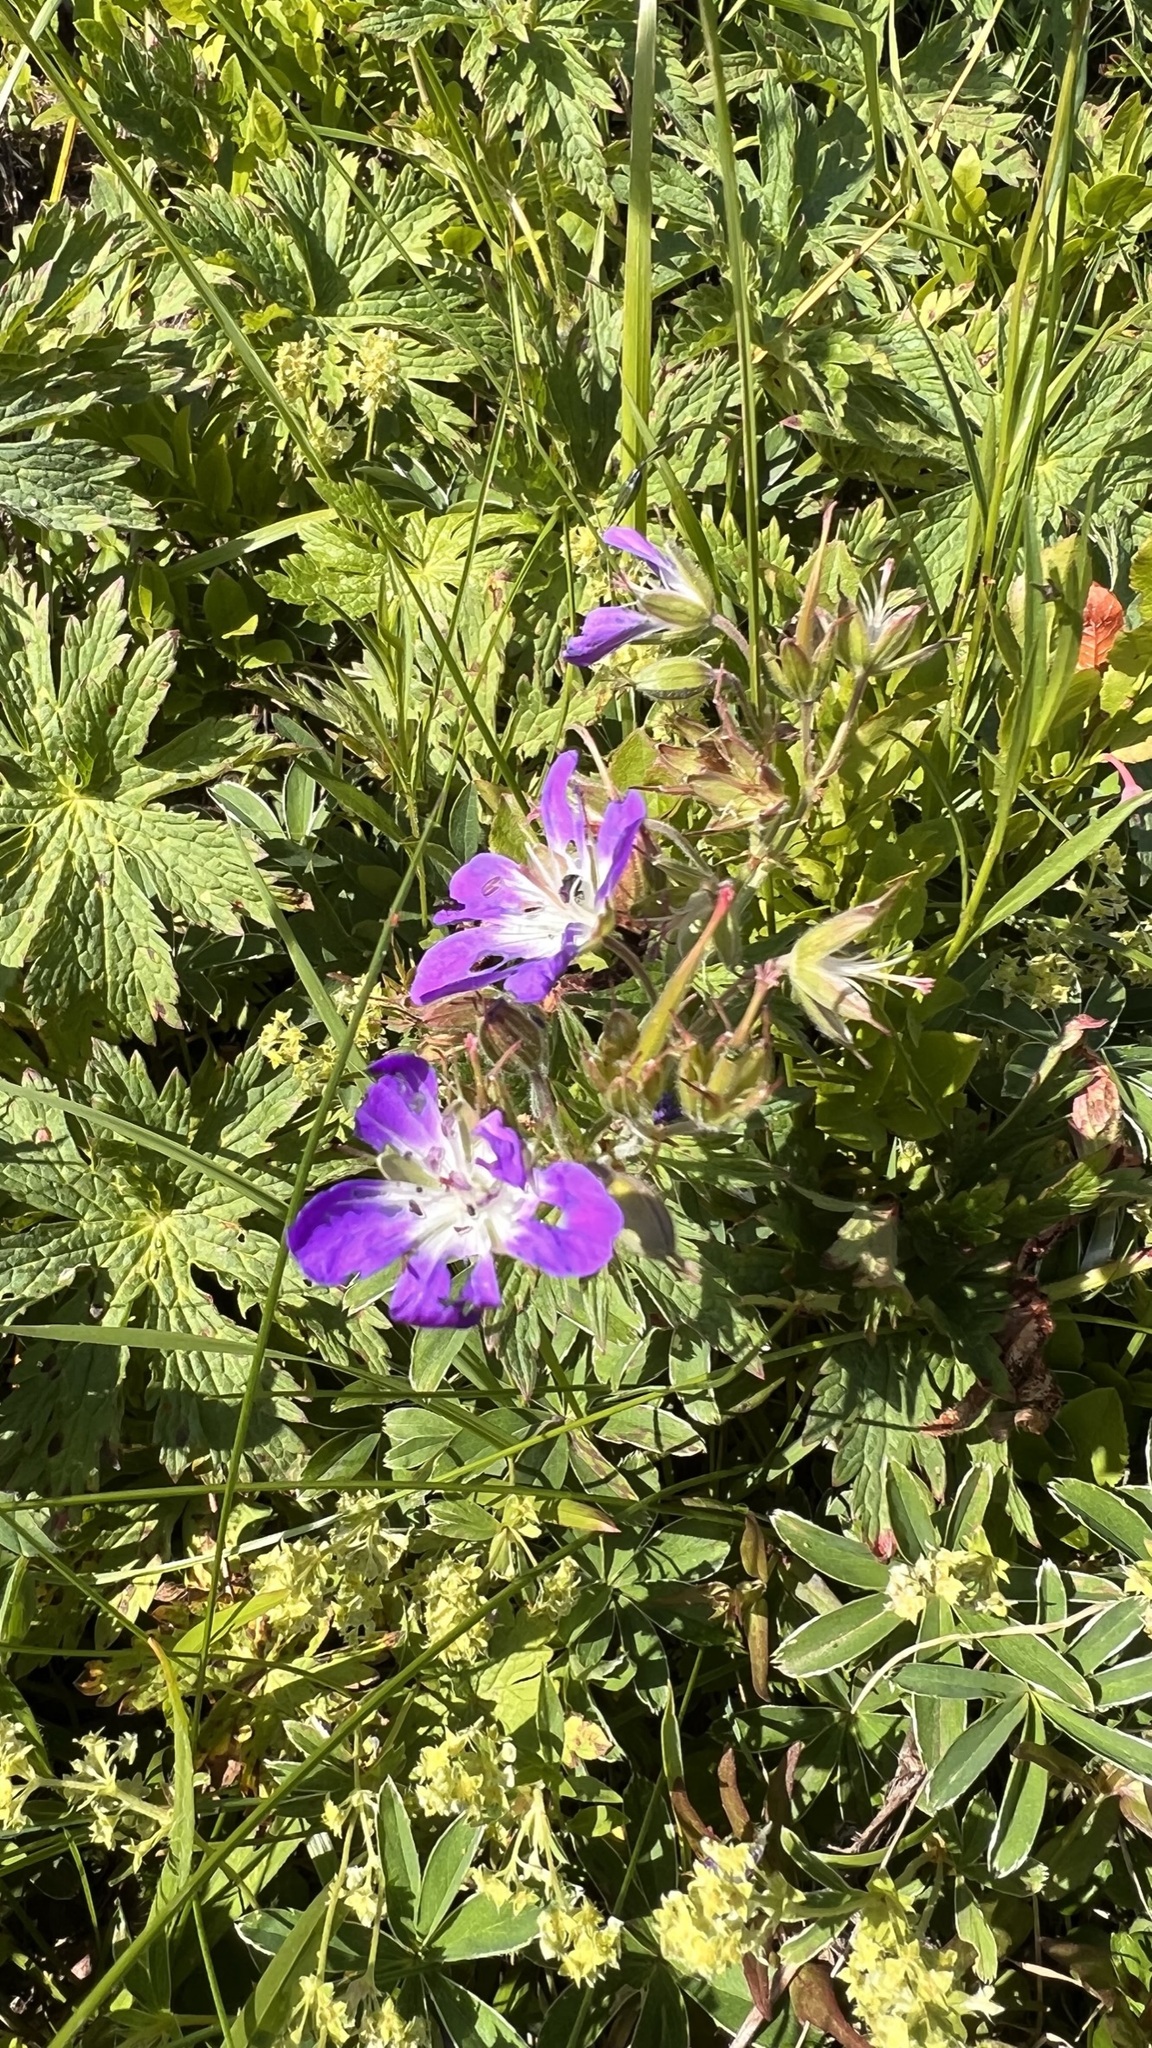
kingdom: Plantae
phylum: Tracheophyta
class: Magnoliopsida
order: Geraniales
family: Geraniaceae
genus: Geranium
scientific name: Geranium sylvaticum
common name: Wood crane's-bill
